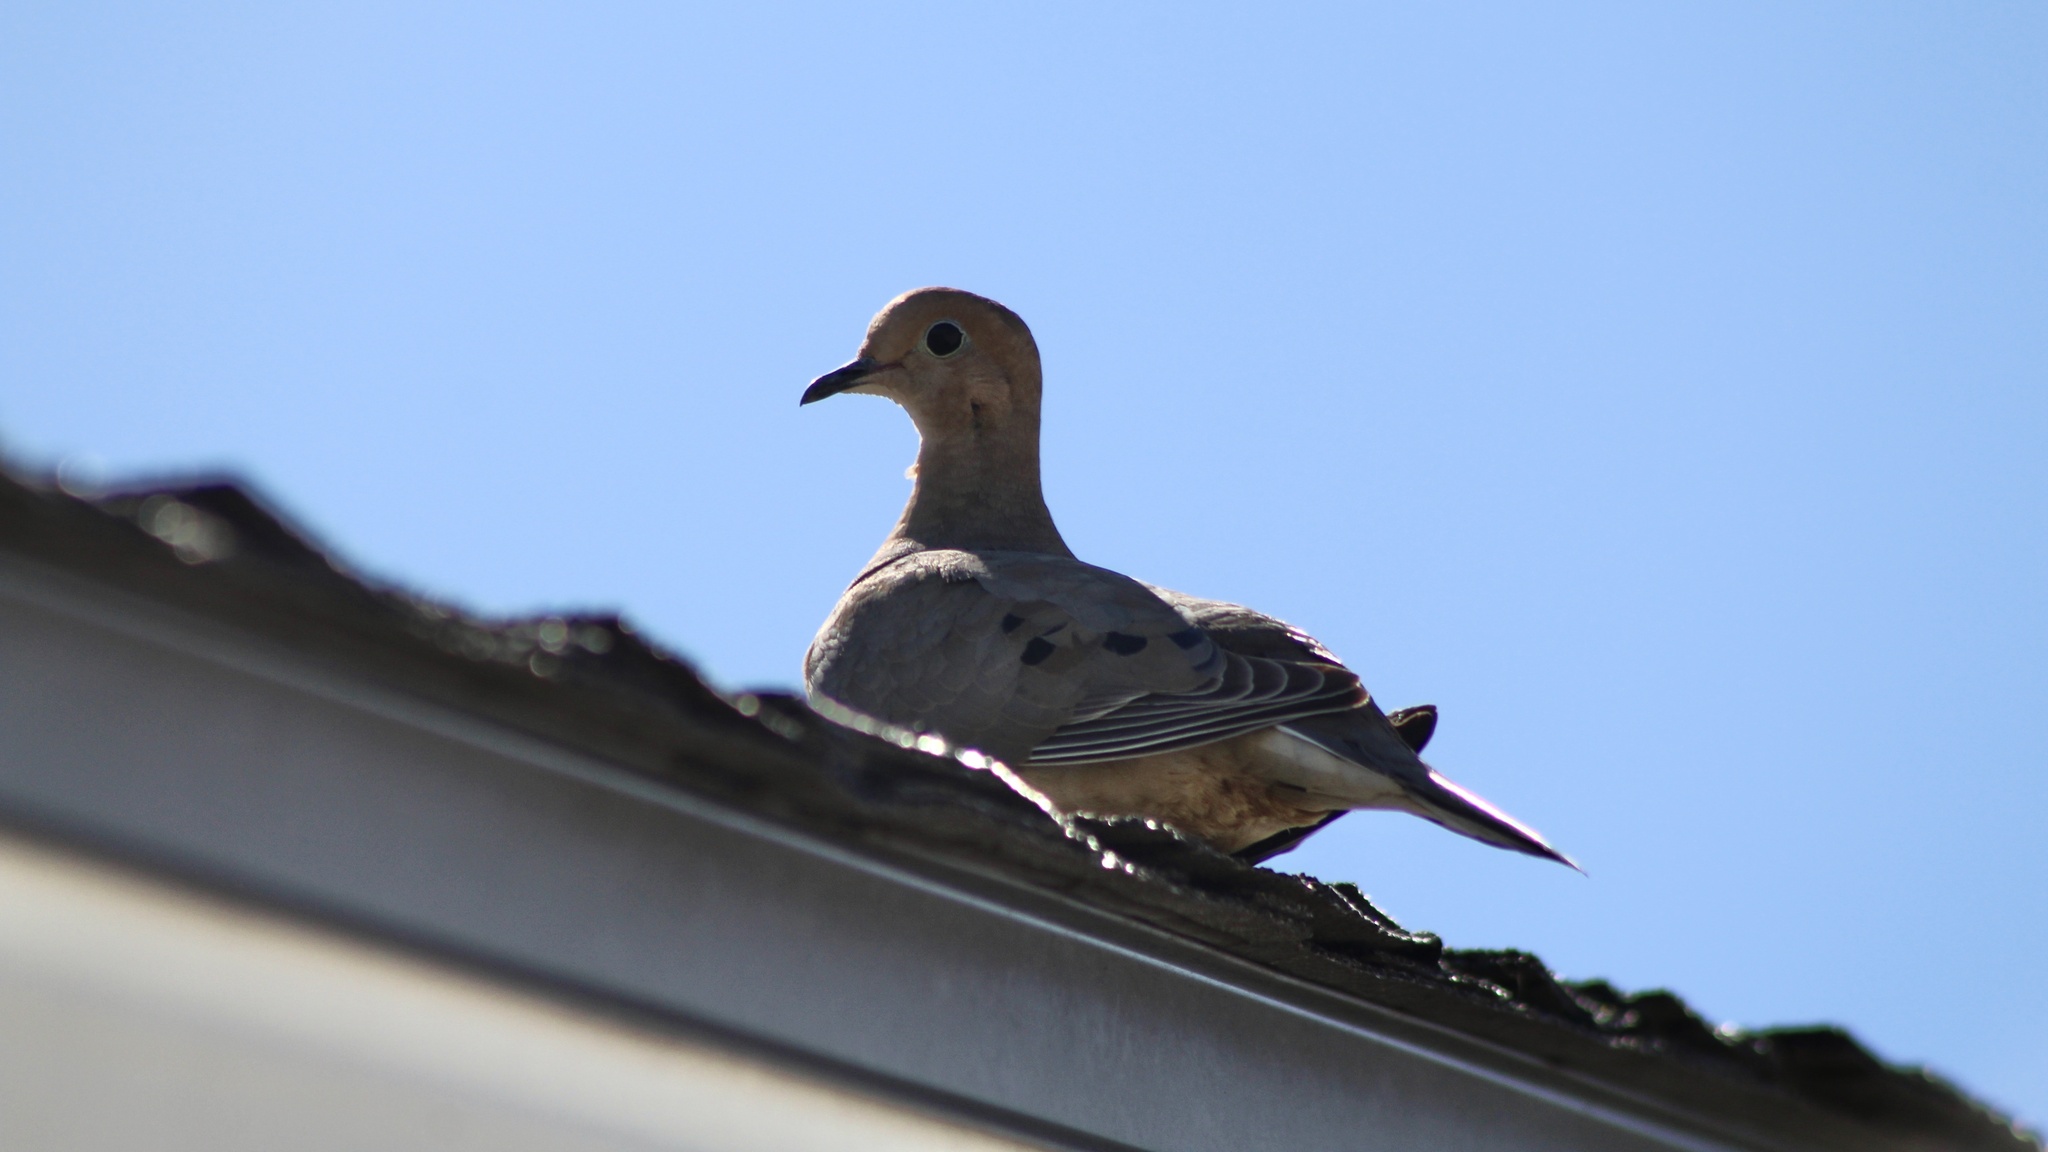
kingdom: Animalia
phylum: Chordata
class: Aves
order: Columbiformes
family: Columbidae
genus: Zenaida
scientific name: Zenaida macroura
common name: Mourning dove
